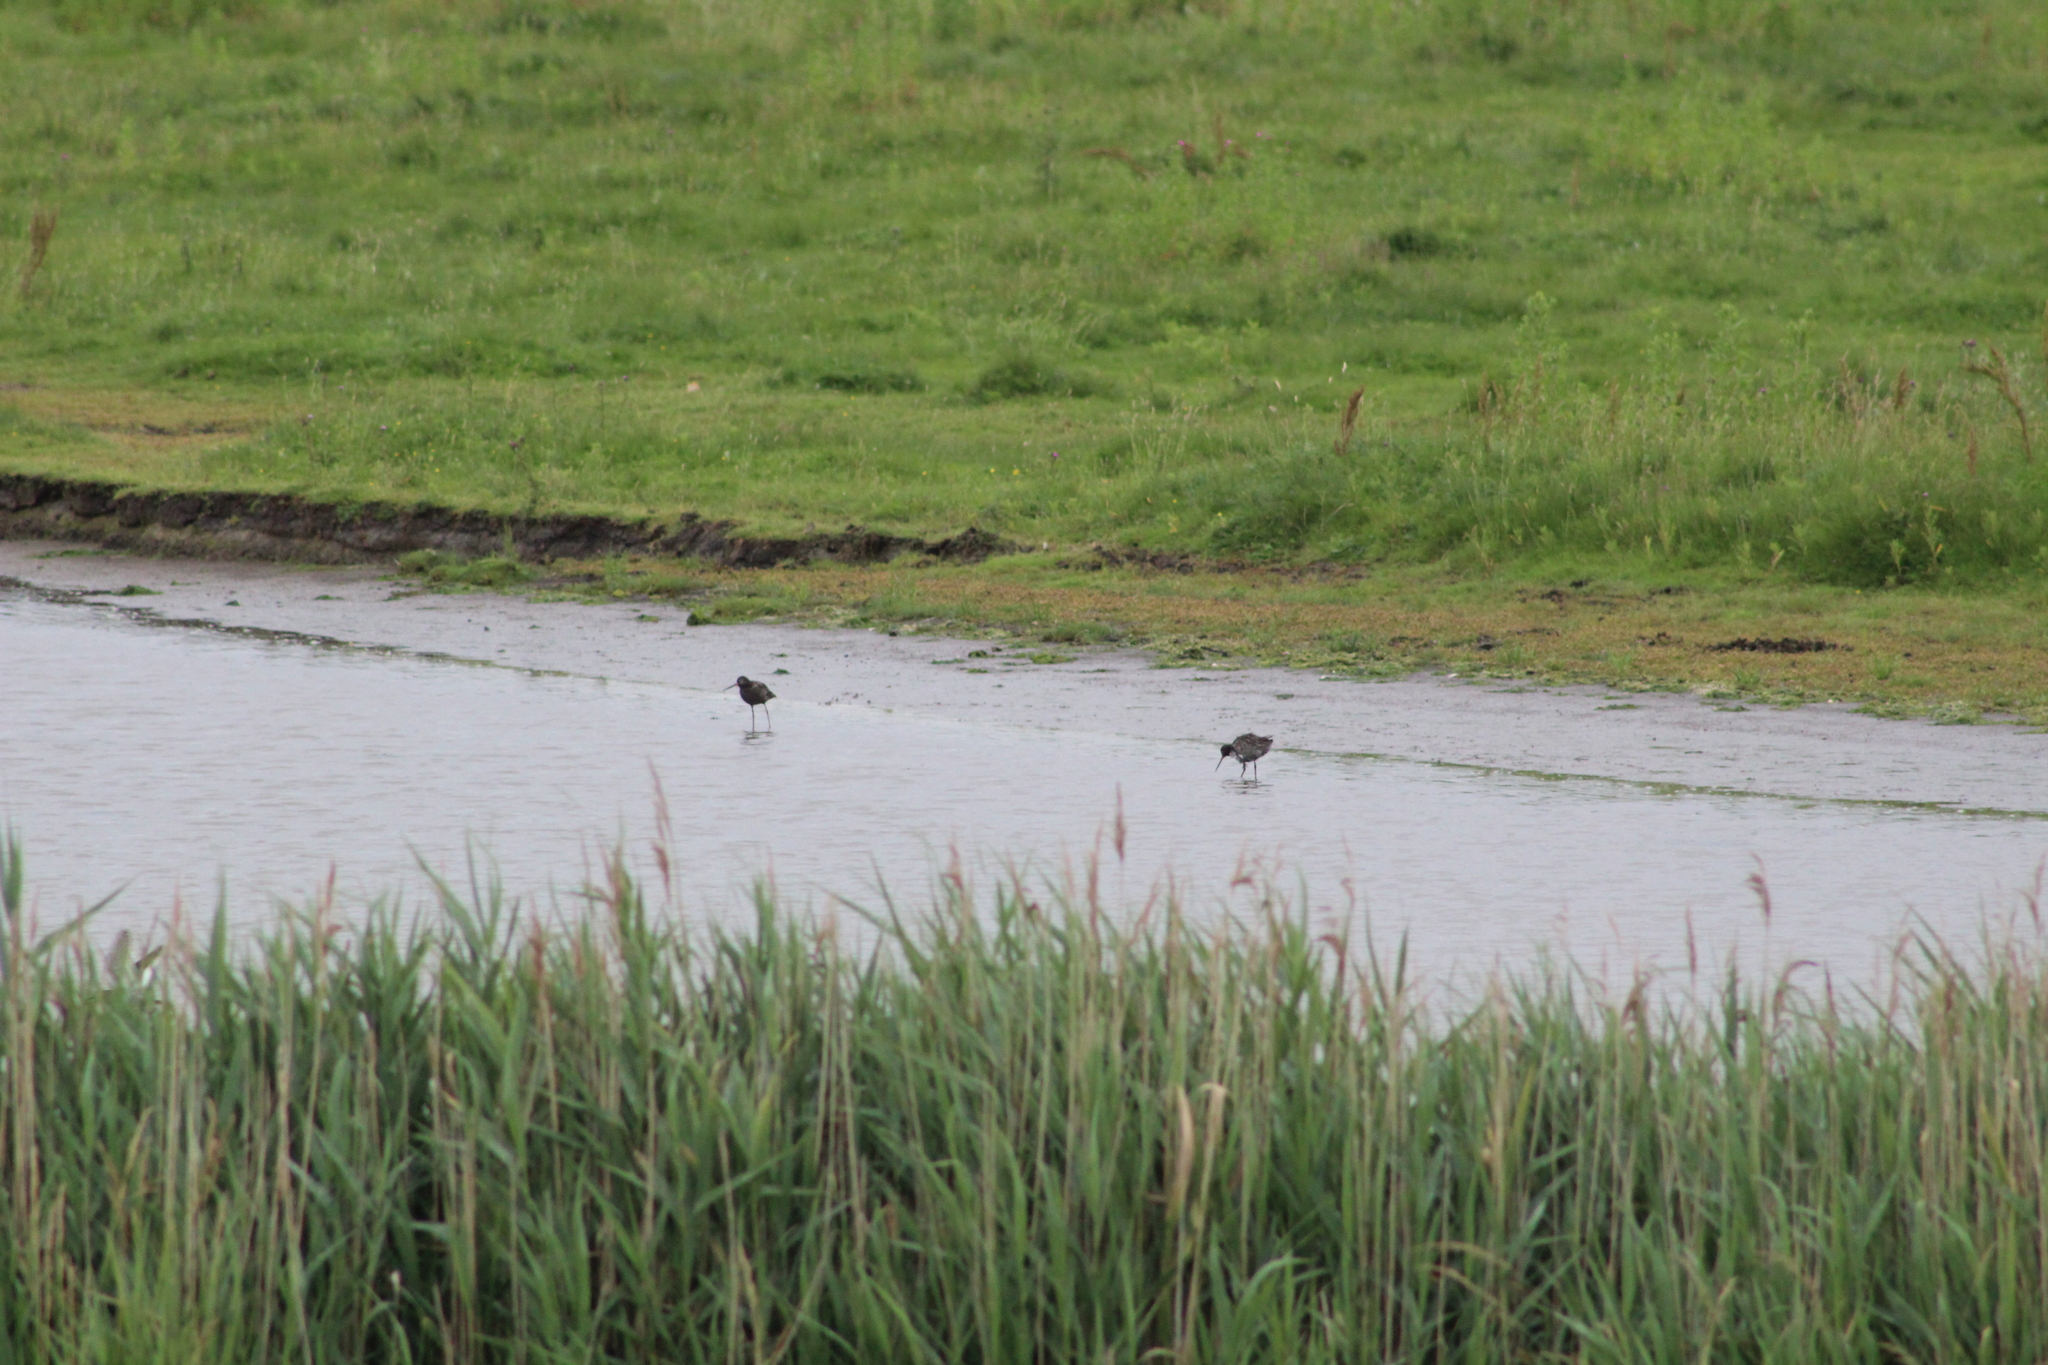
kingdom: Animalia
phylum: Chordata
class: Aves
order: Charadriiformes
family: Scolopacidae
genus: Tringa
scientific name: Tringa erythropus
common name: Spotted redshank
